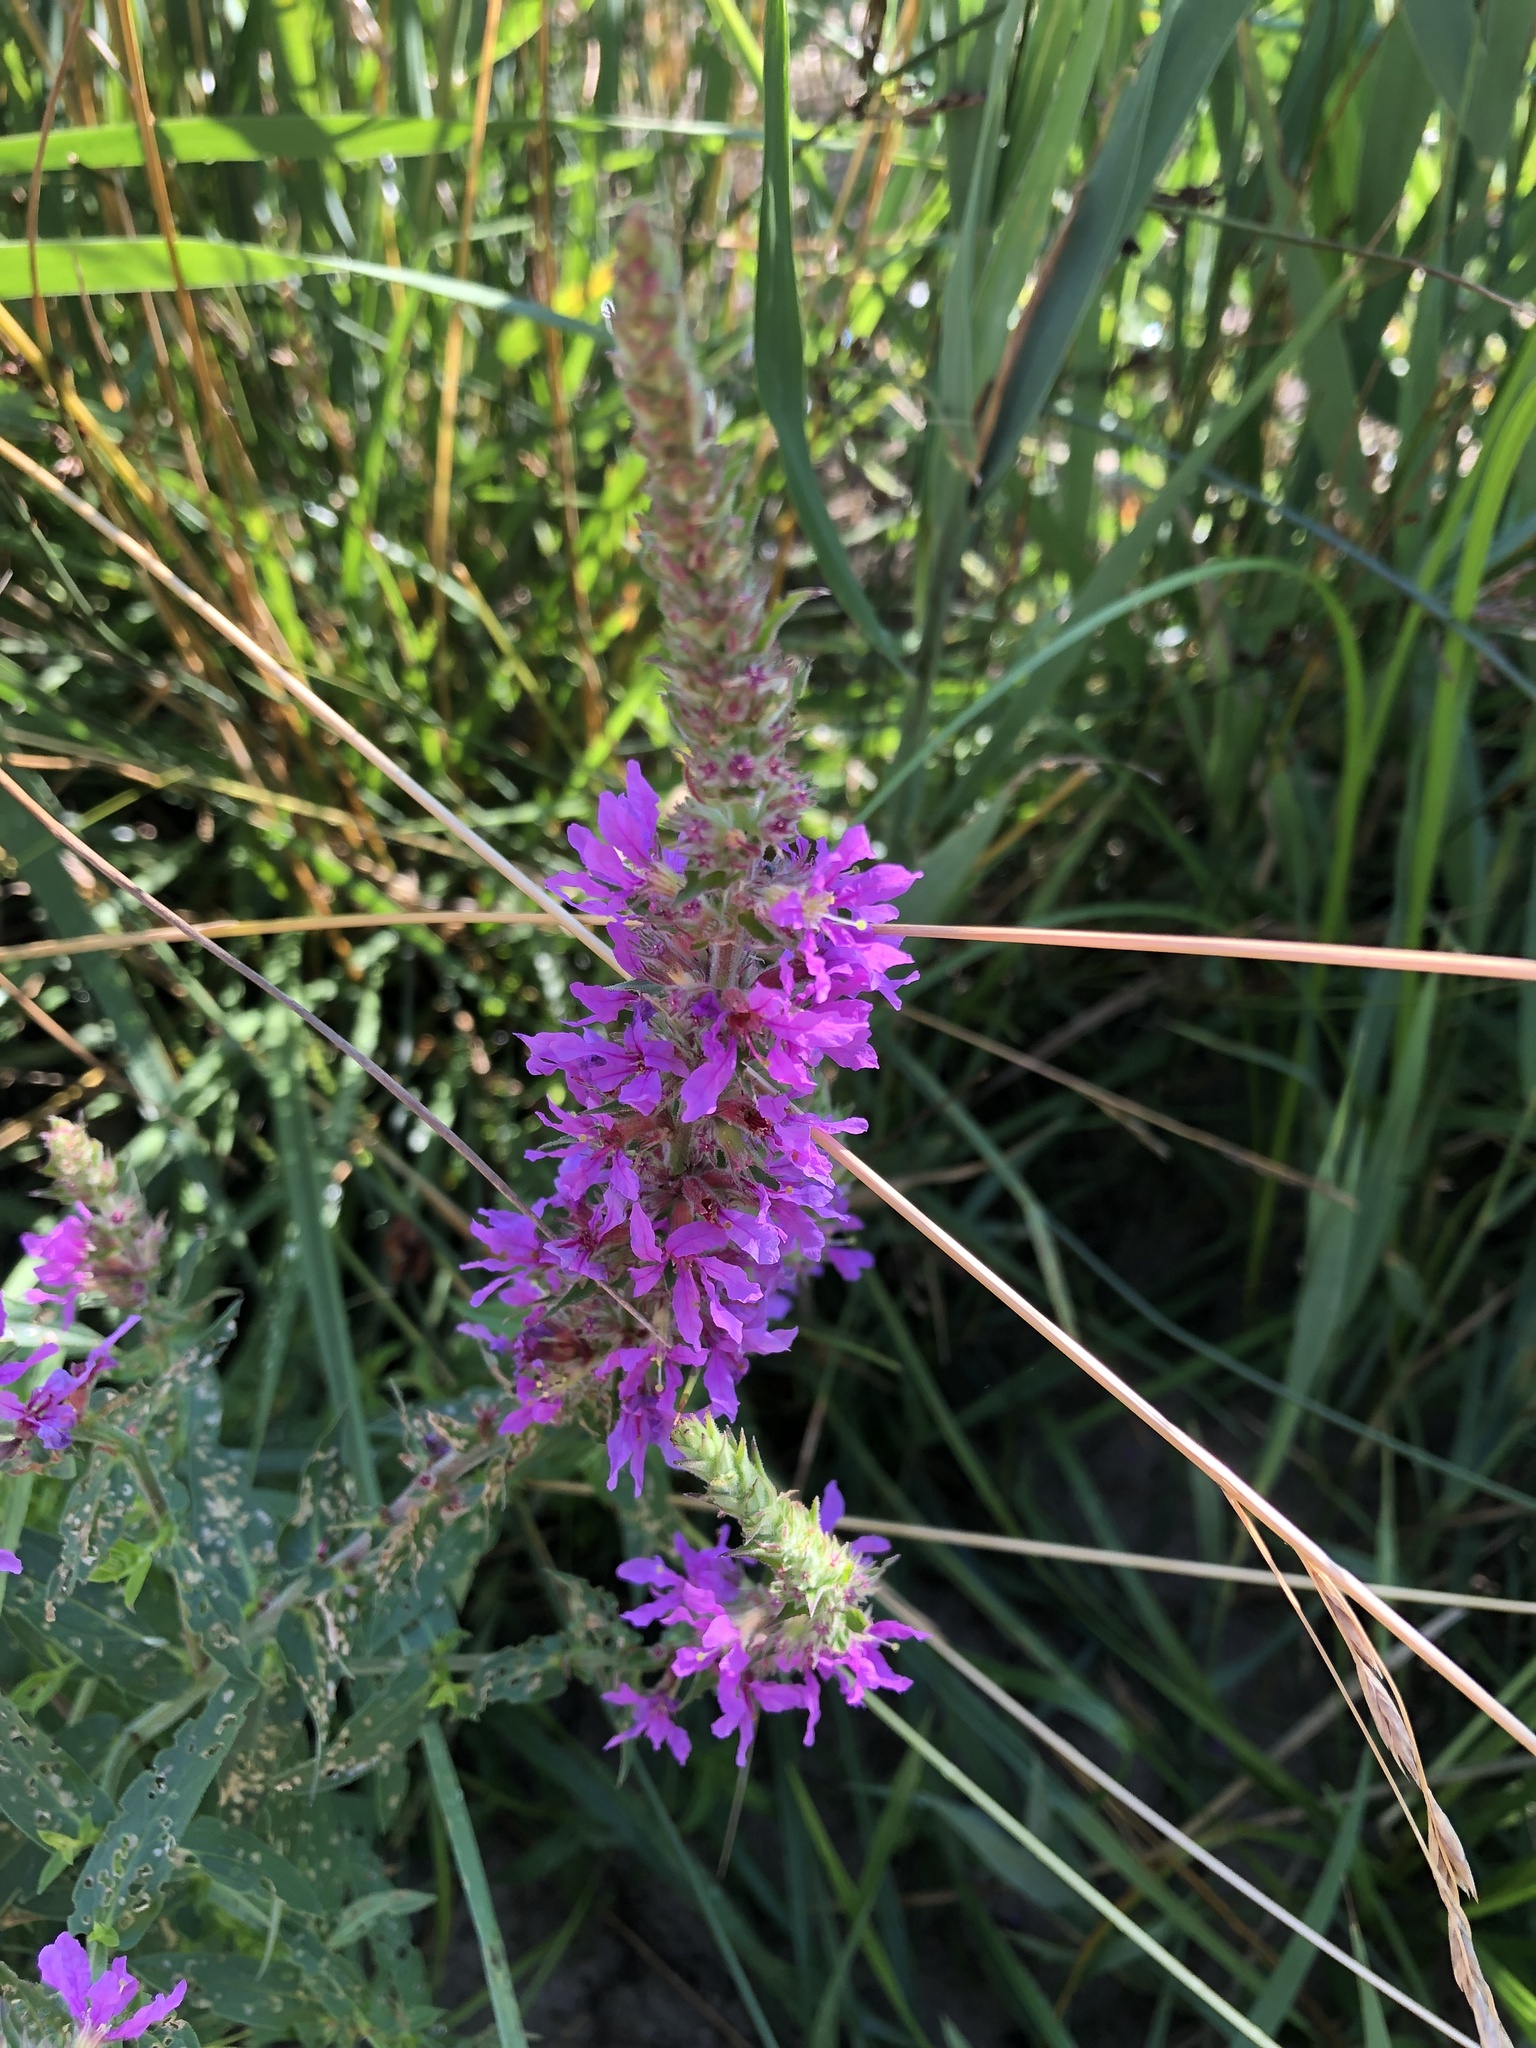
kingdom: Plantae
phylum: Tracheophyta
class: Magnoliopsida
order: Myrtales
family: Lythraceae
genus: Lythrum
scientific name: Lythrum salicaria
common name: Purple loosestrife
